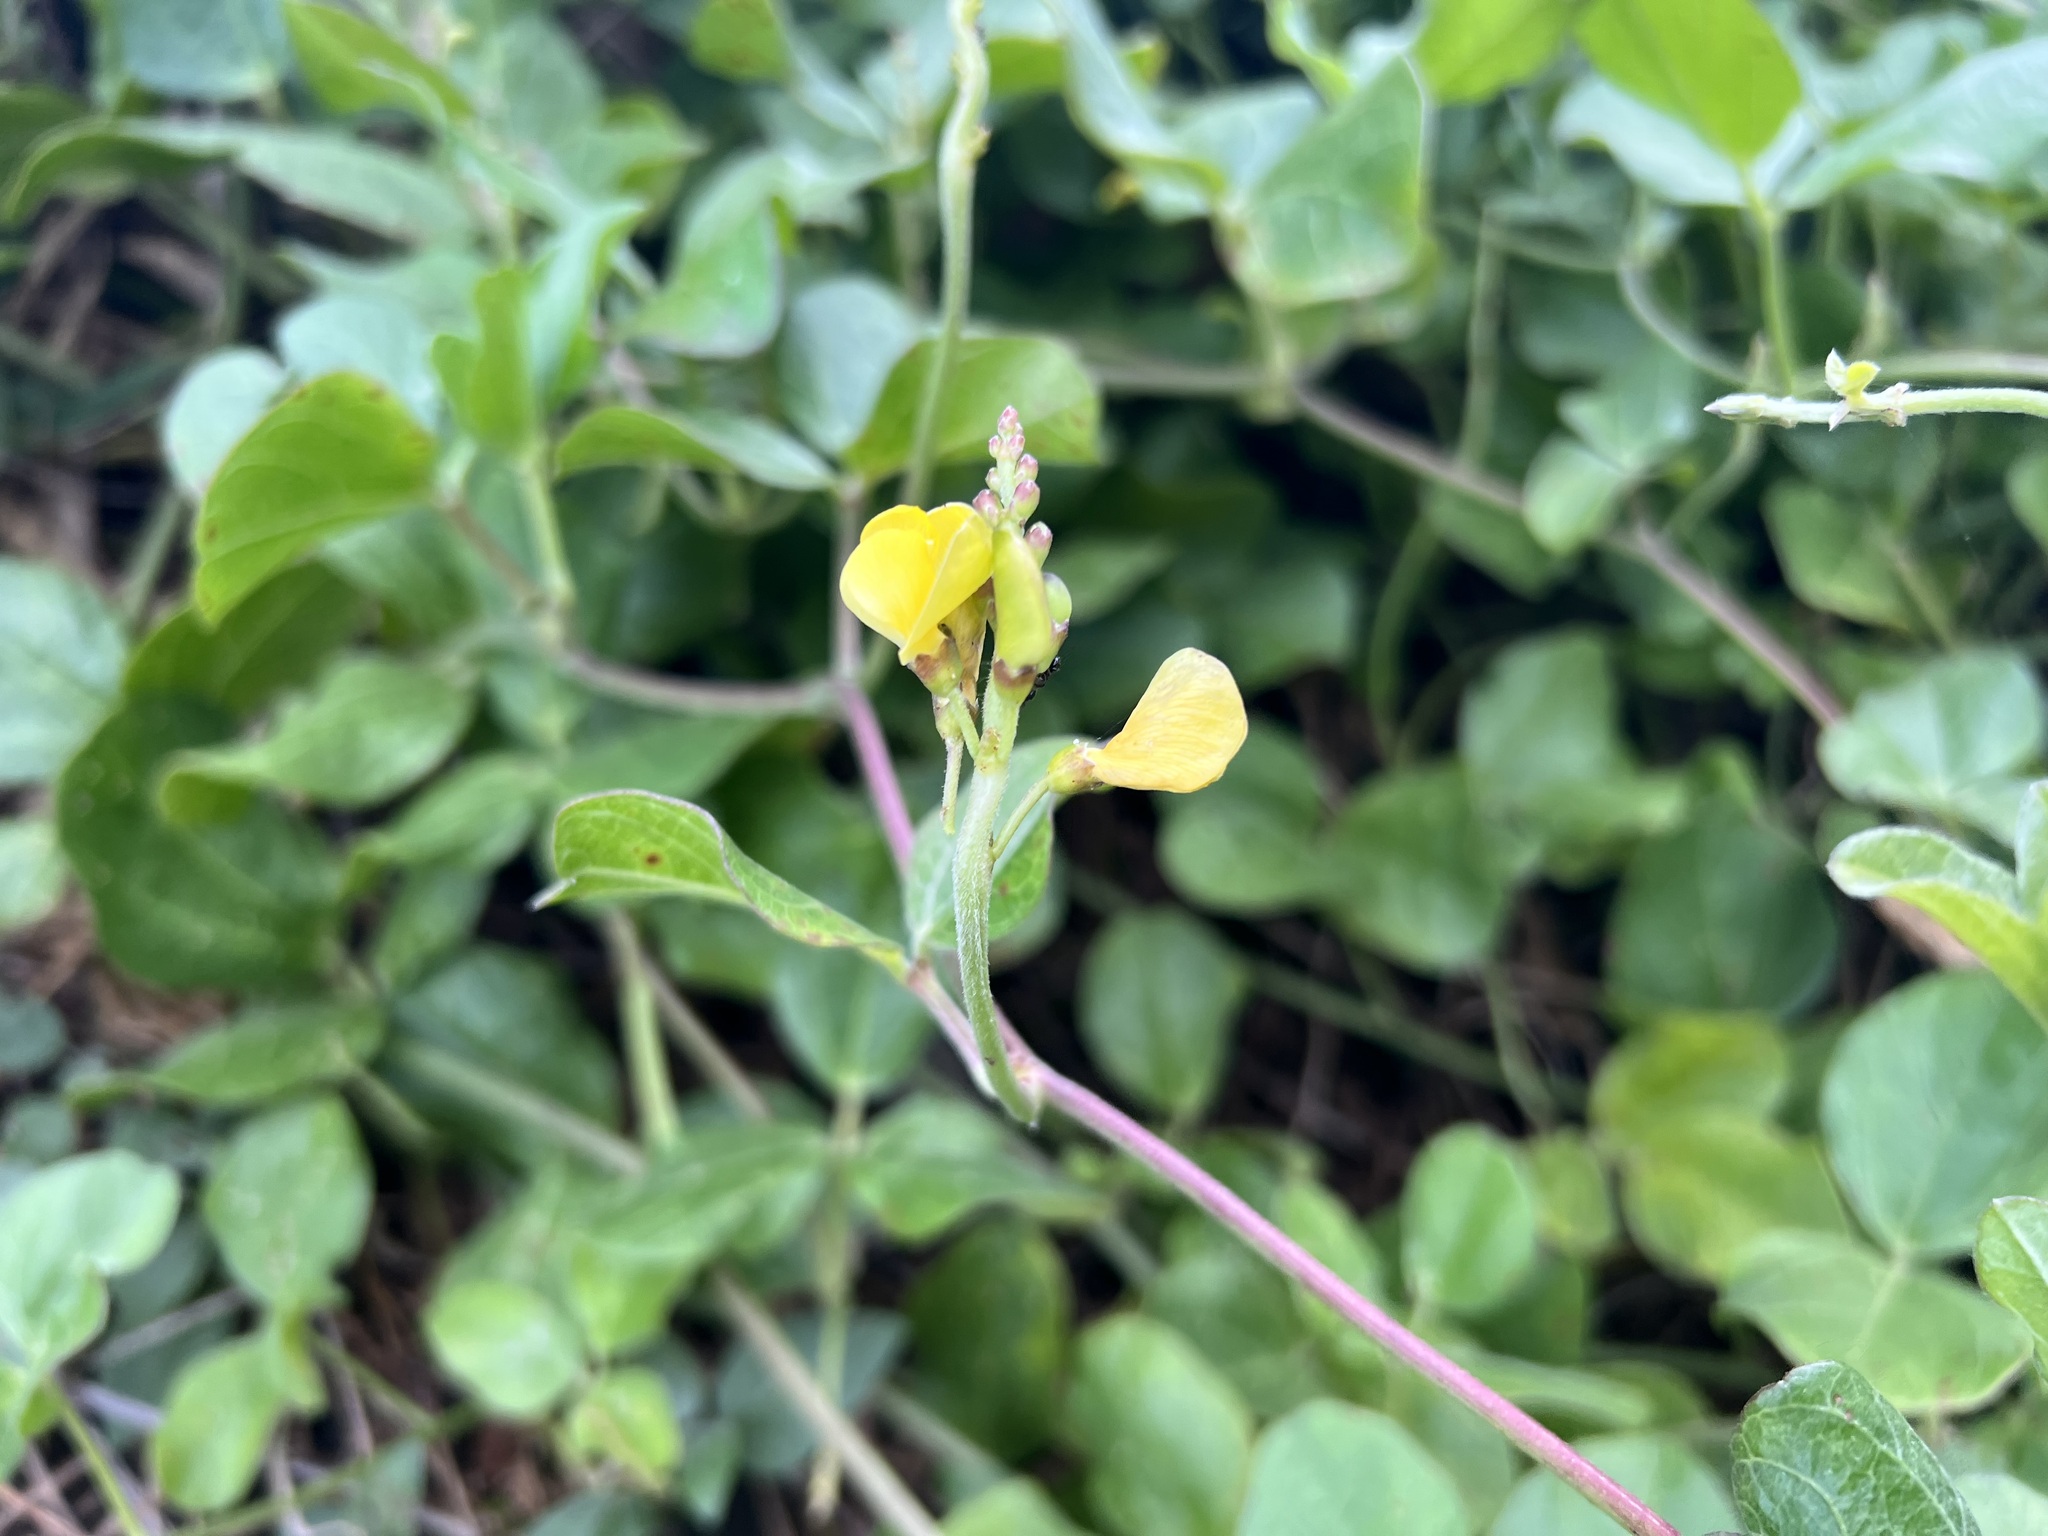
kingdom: Plantae
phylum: Tracheophyta
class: Magnoliopsida
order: Fabales
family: Fabaceae
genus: Vigna
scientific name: Vigna marina
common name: Dune-bean
